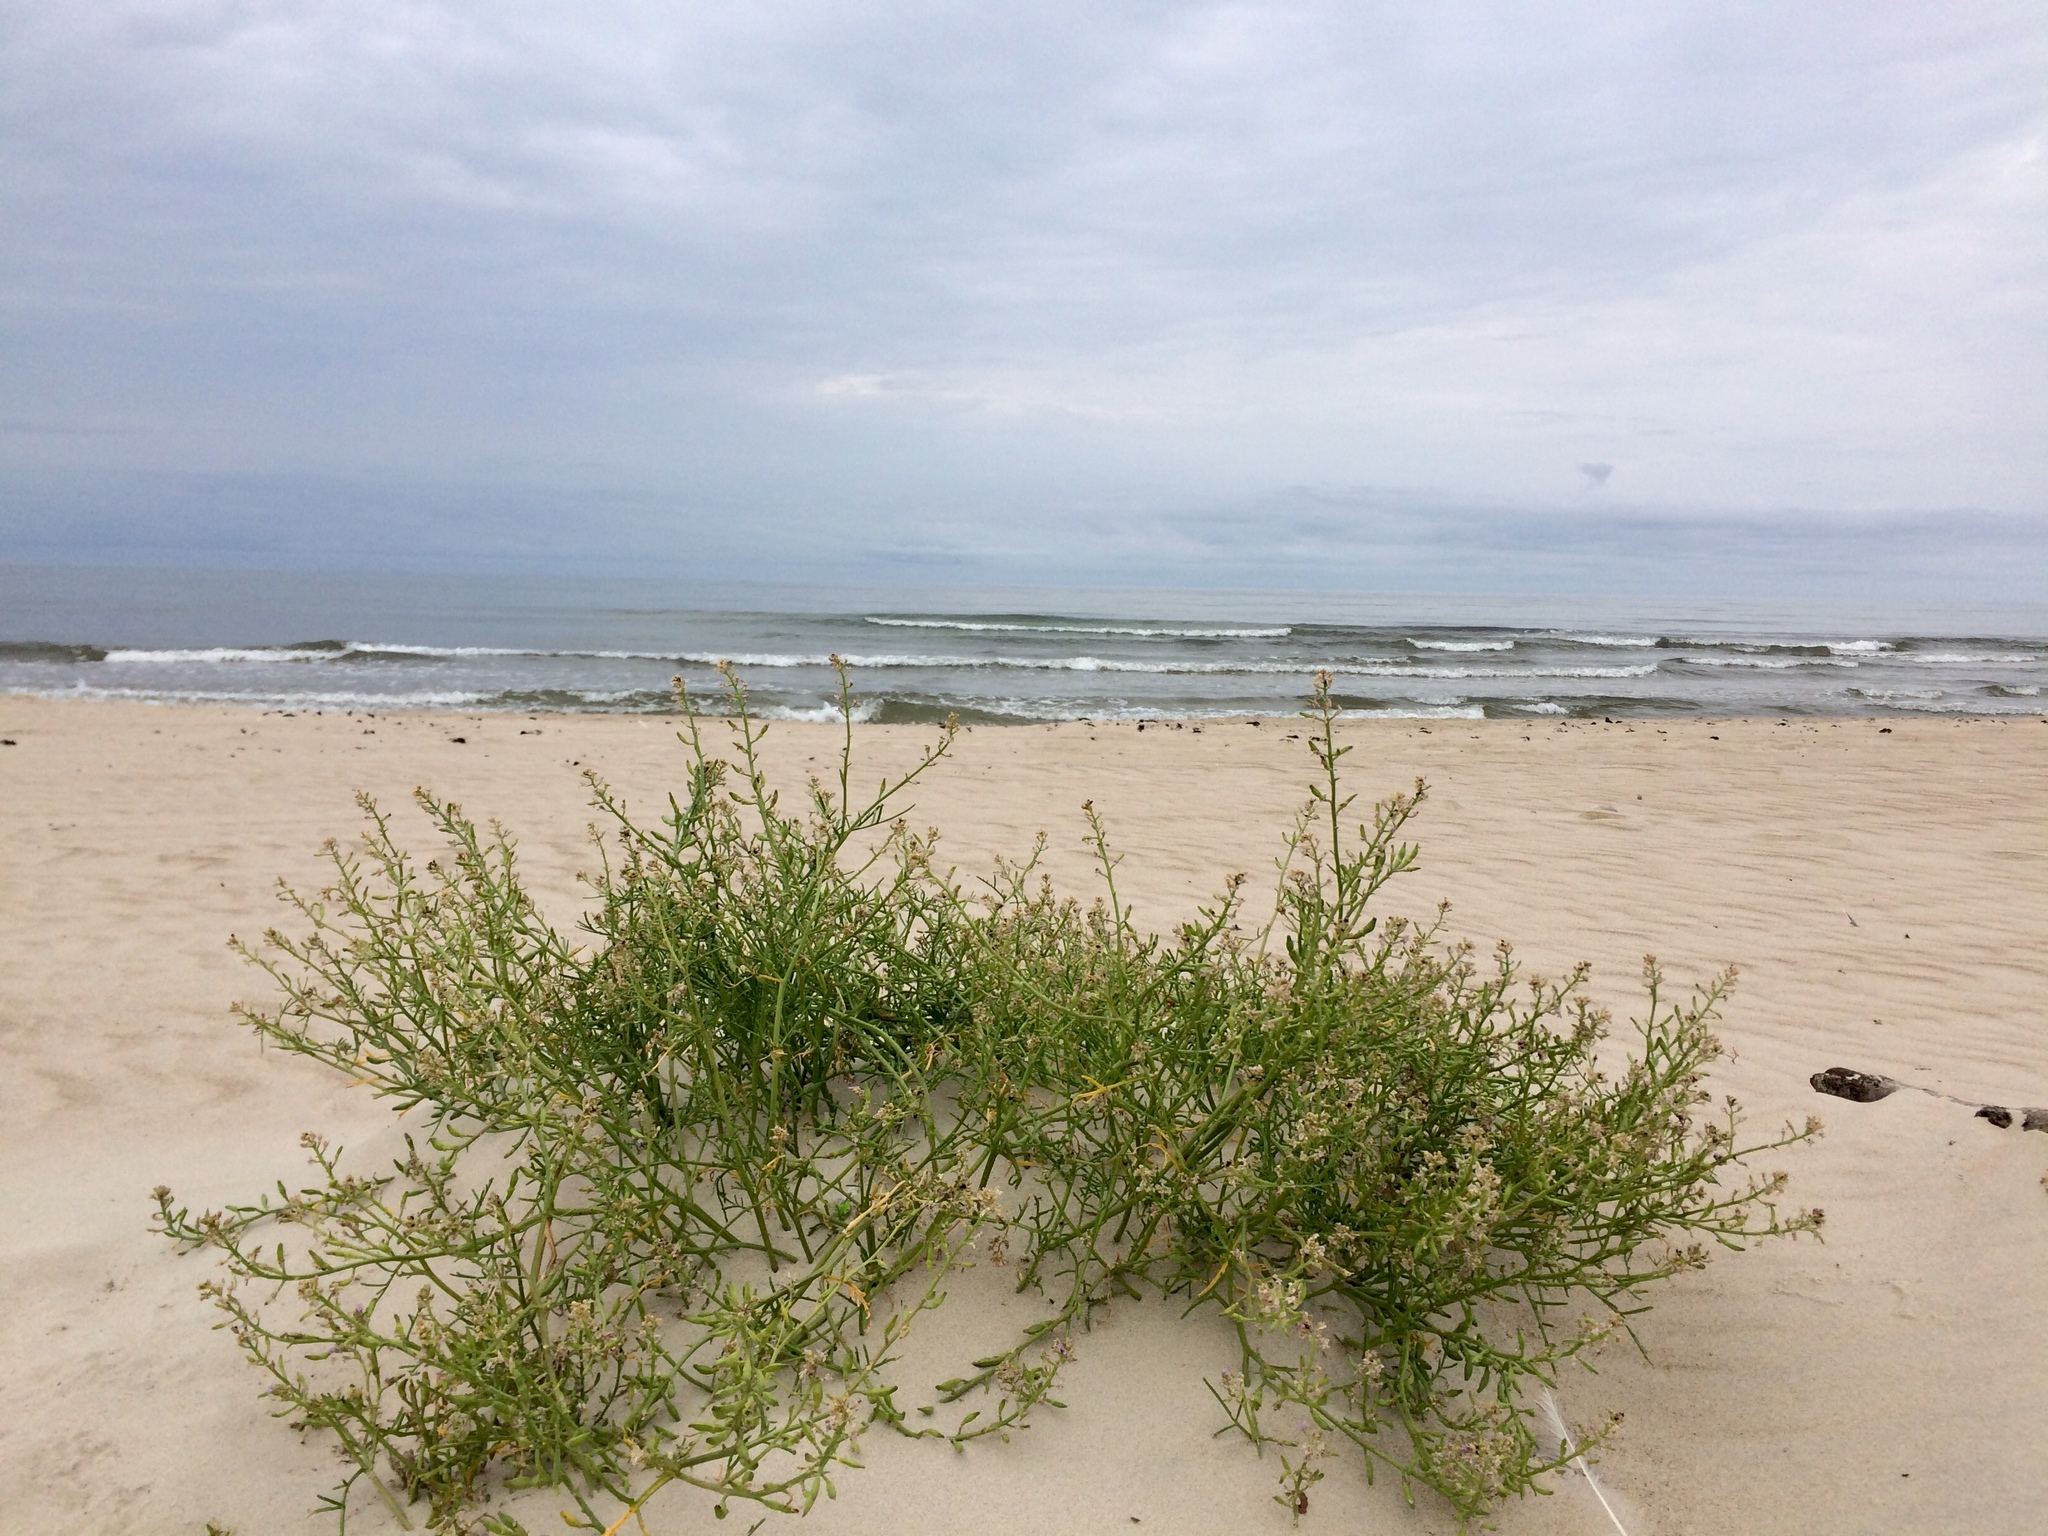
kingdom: Plantae
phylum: Tracheophyta
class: Magnoliopsida
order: Brassicales
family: Brassicaceae
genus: Cakile
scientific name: Cakile maritima
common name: Sea rocket
